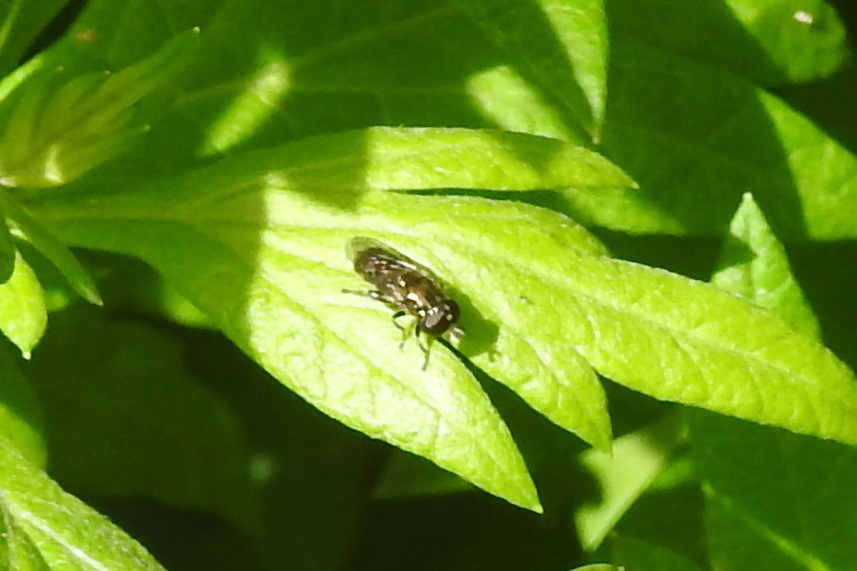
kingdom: Animalia
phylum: Arthropoda
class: Insecta
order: Diptera
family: Syrphidae
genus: Eumerus
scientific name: Eumerus
